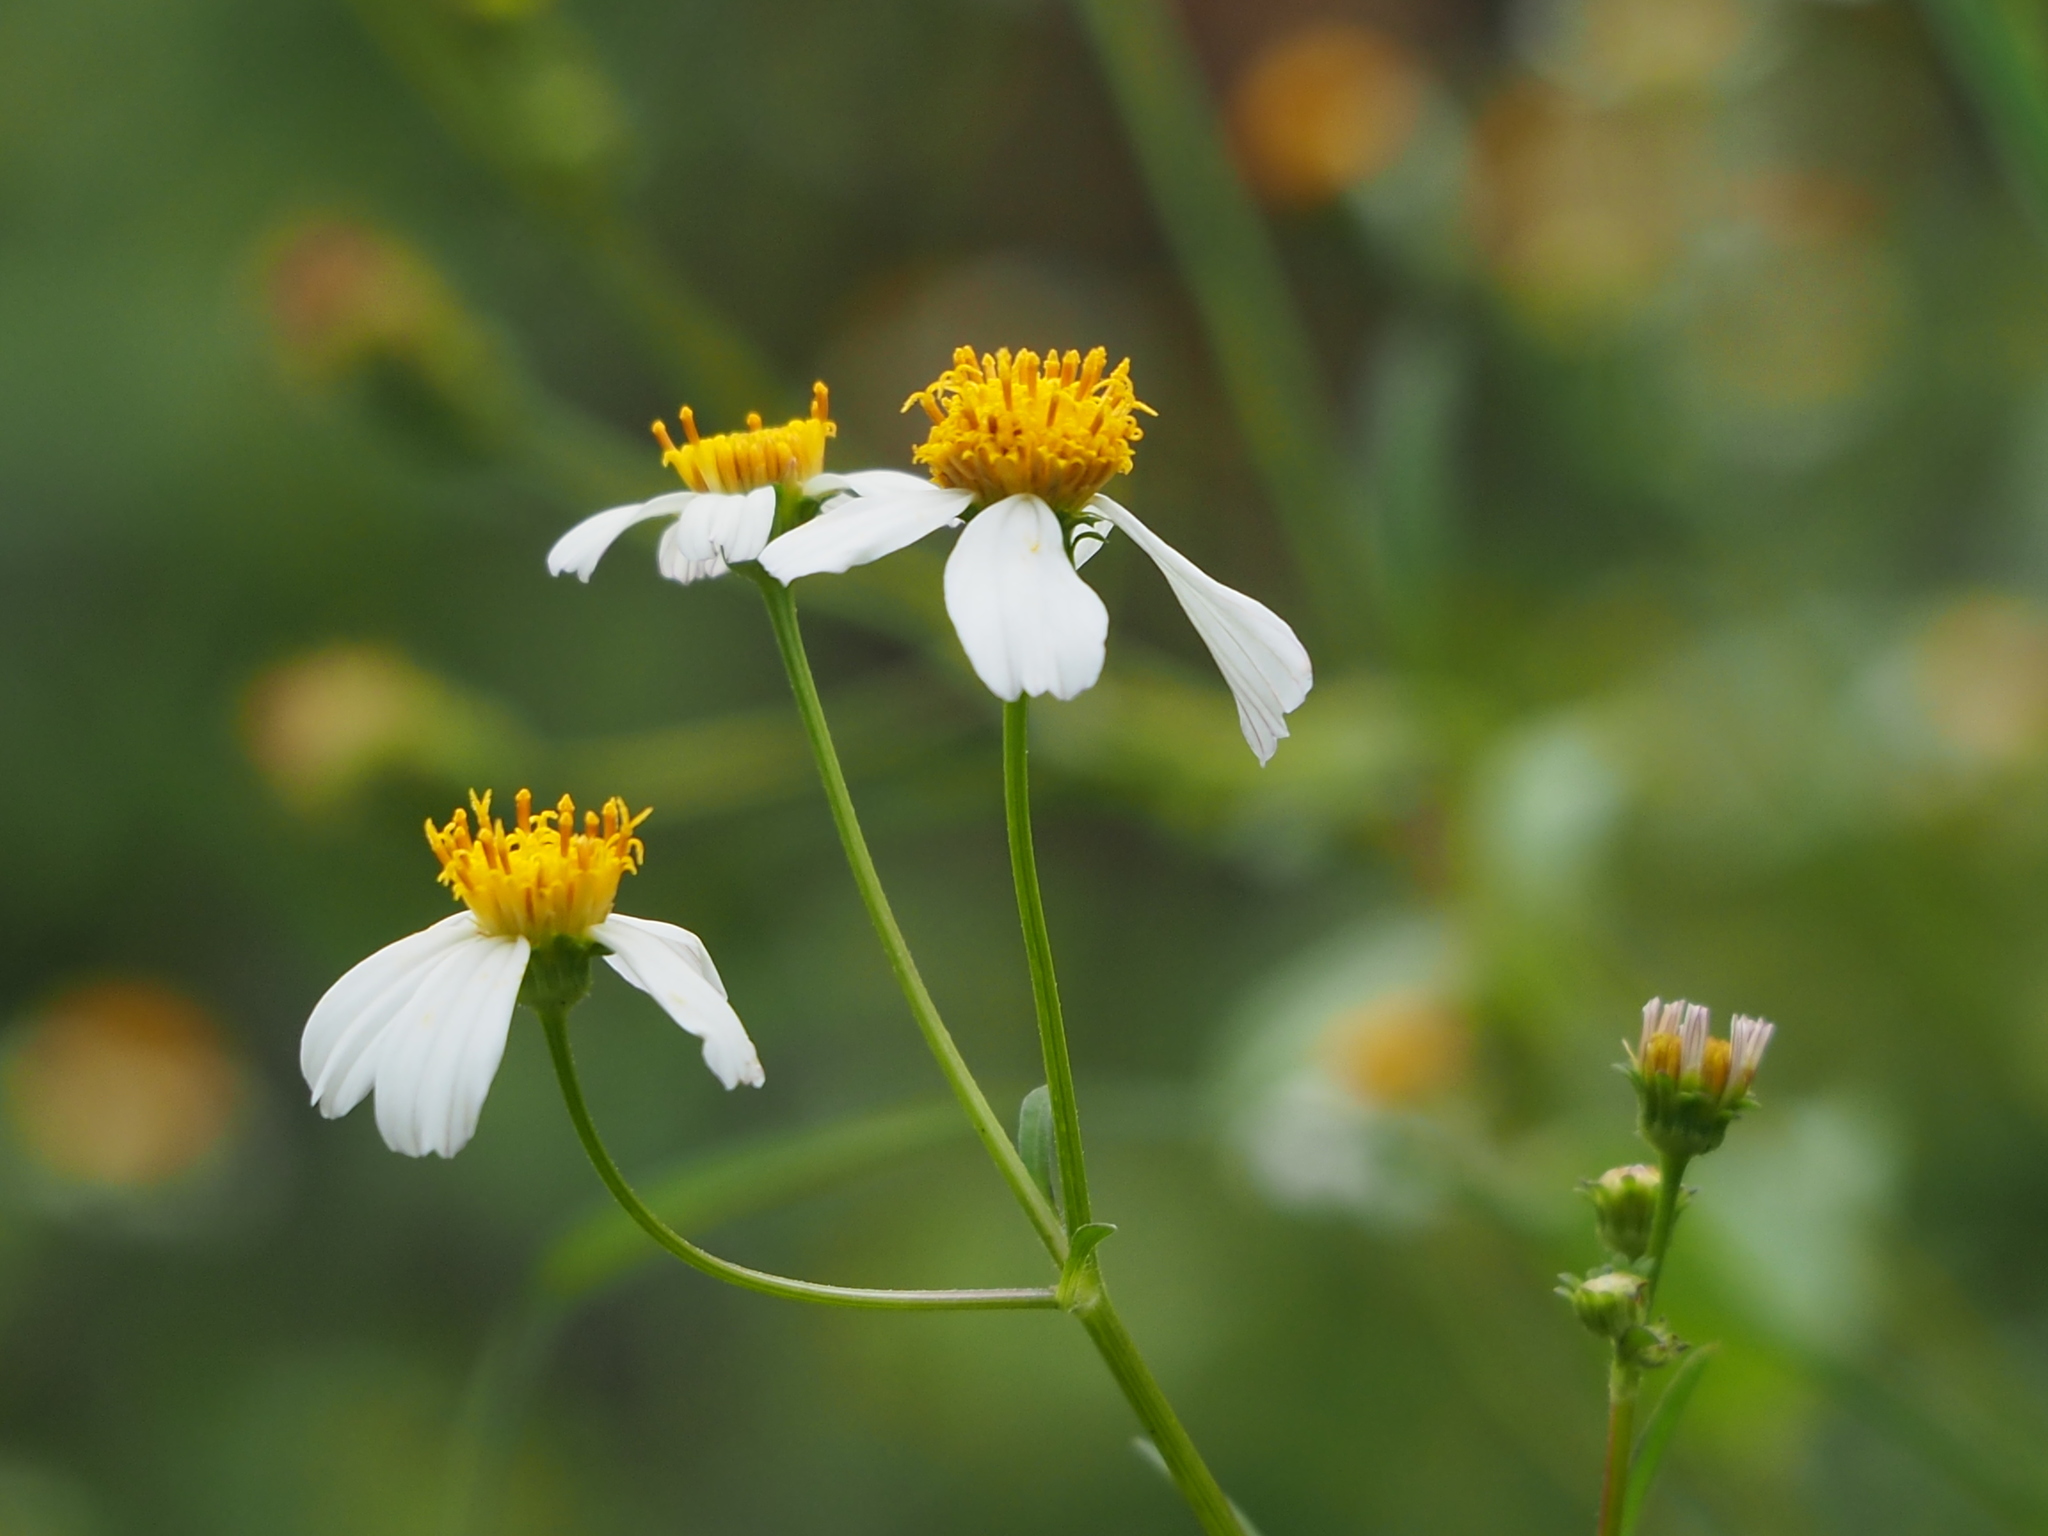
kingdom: Plantae
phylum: Tracheophyta
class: Magnoliopsida
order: Asterales
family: Asteraceae
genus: Bidens
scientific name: Bidens alba
